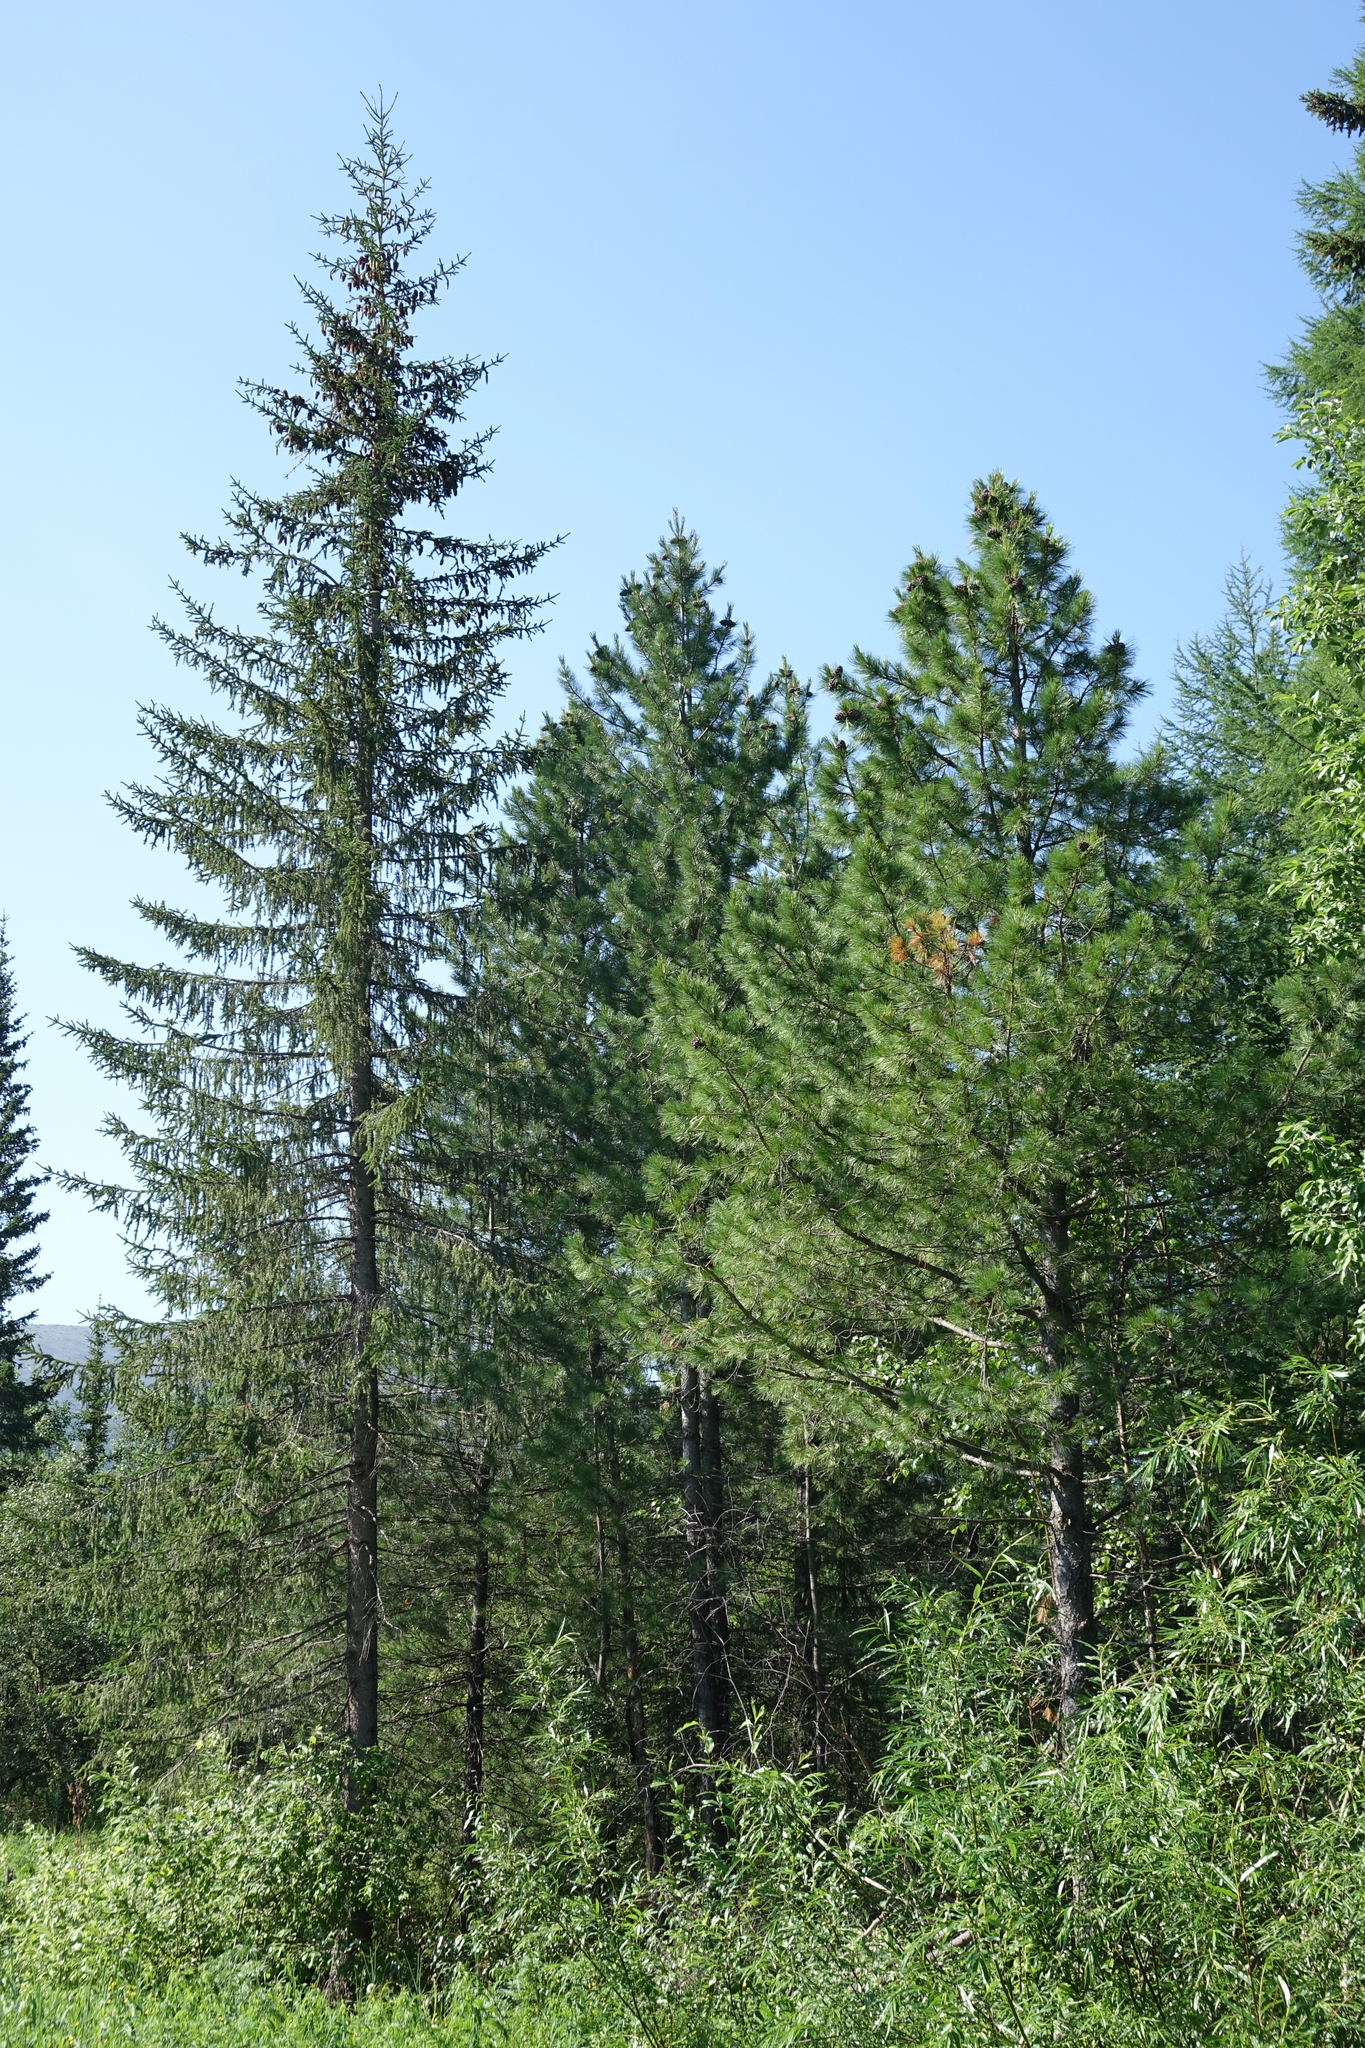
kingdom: Plantae
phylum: Tracheophyta
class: Pinopsida
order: Pinales
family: Pinaceae
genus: Pinus
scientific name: Pinus sibirica
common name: Siberian pine
